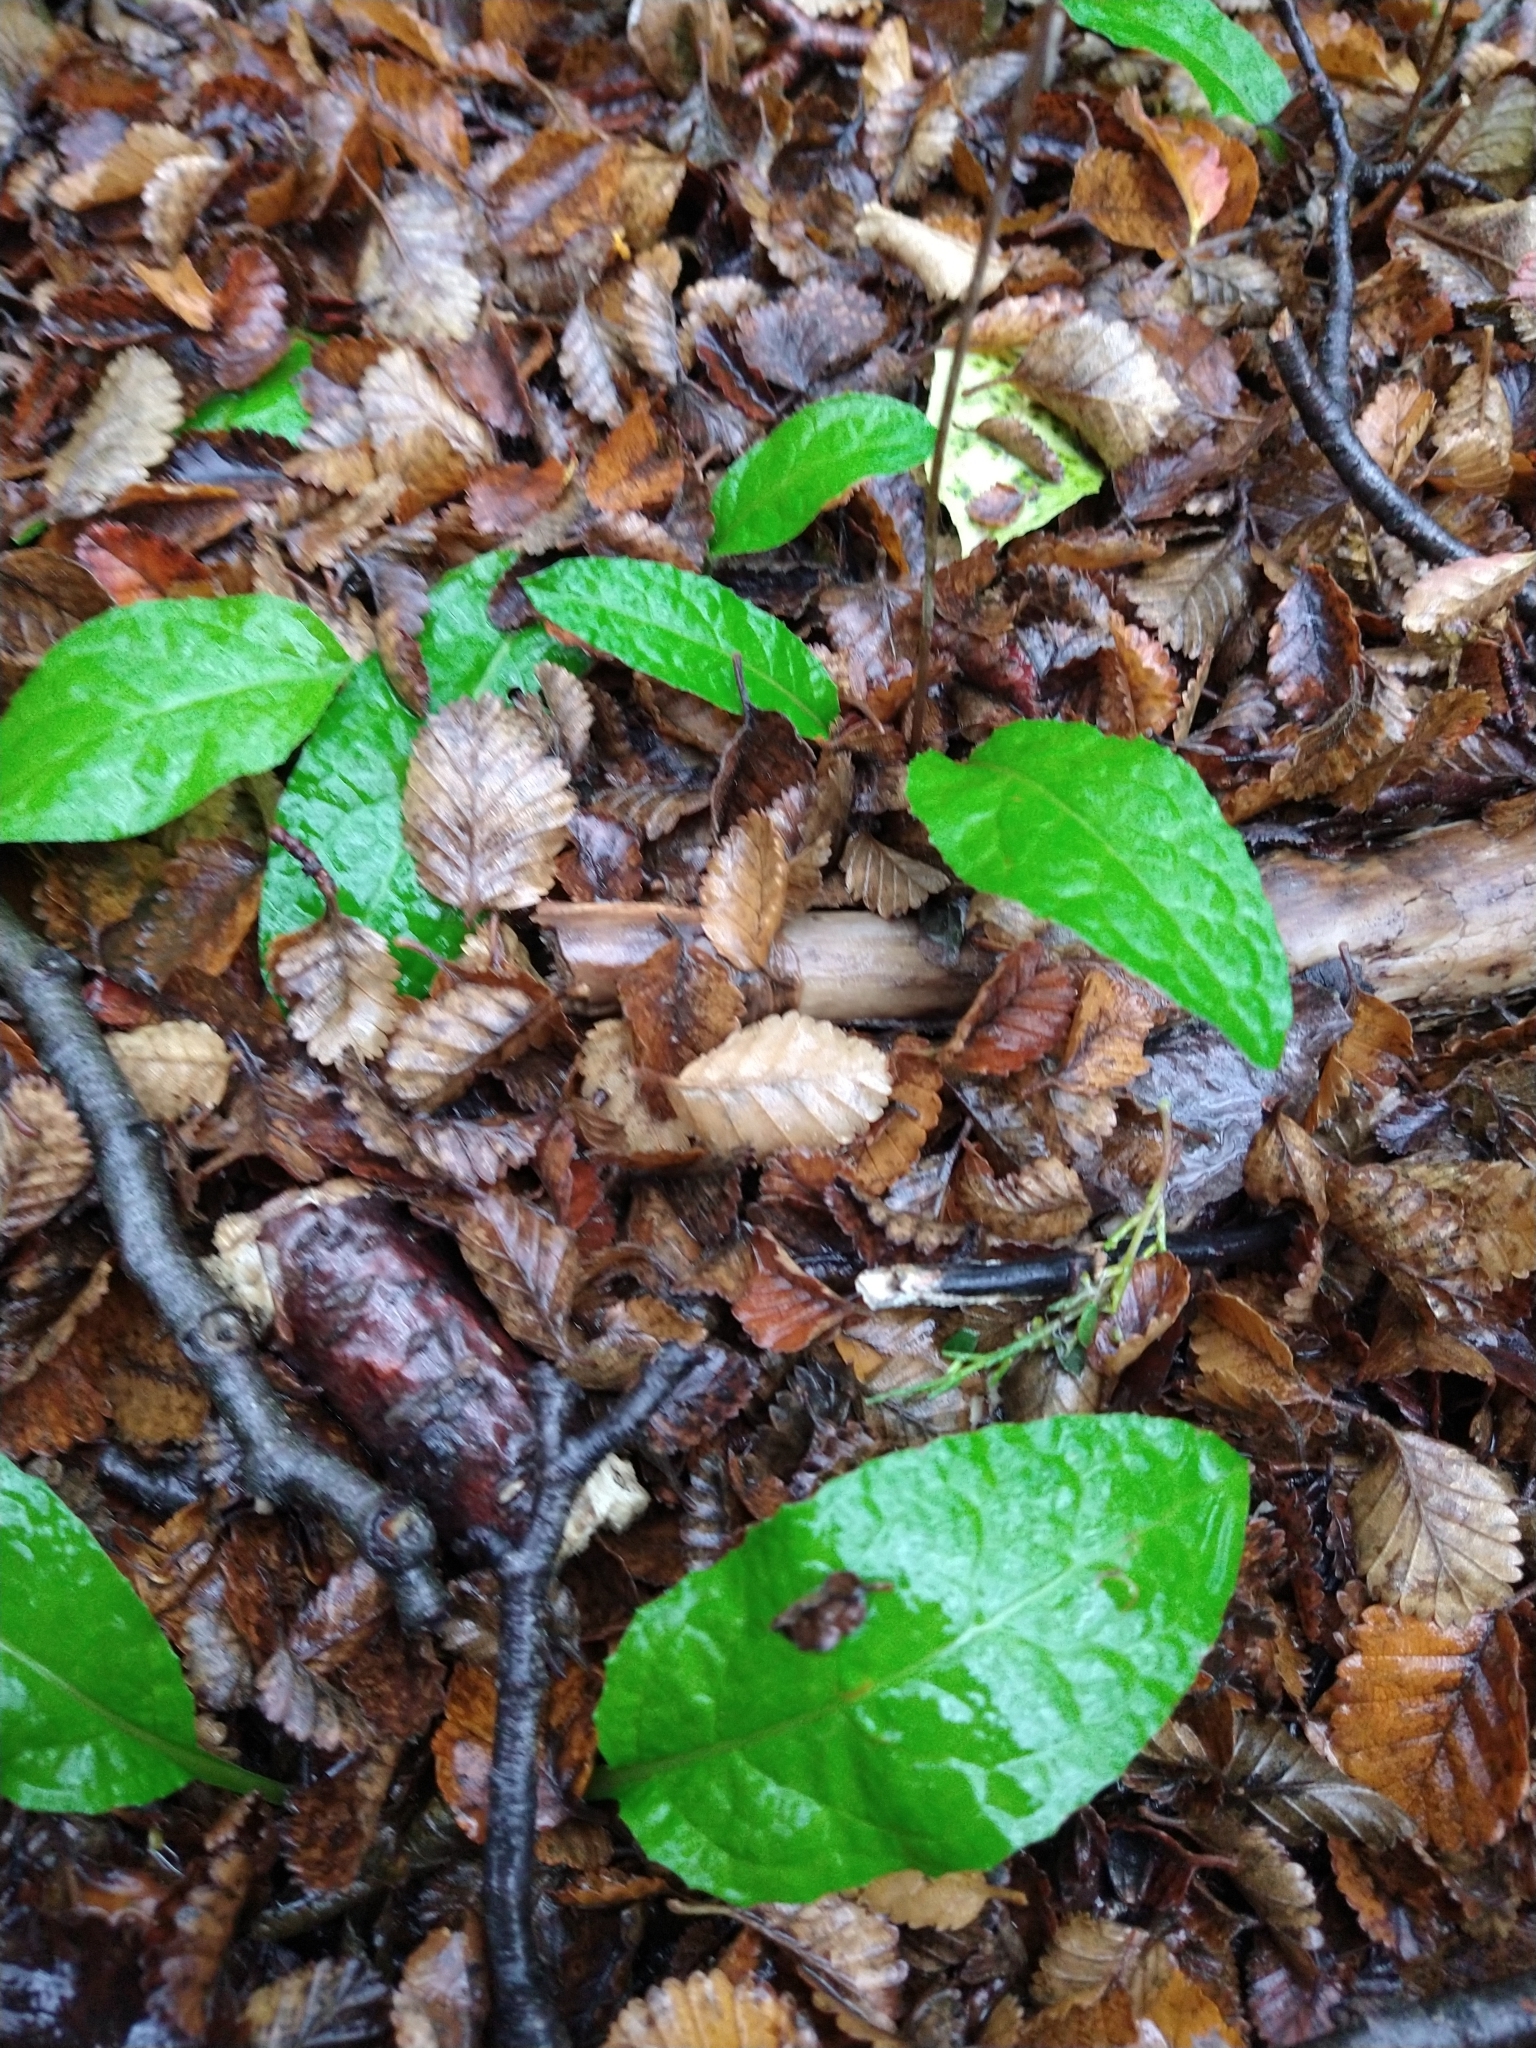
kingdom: Plantae
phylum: Tracheophyta
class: Magnoliopsida
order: Asterales
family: Asteraceae
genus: Adenocaulon
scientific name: Adenocaulon chilense
